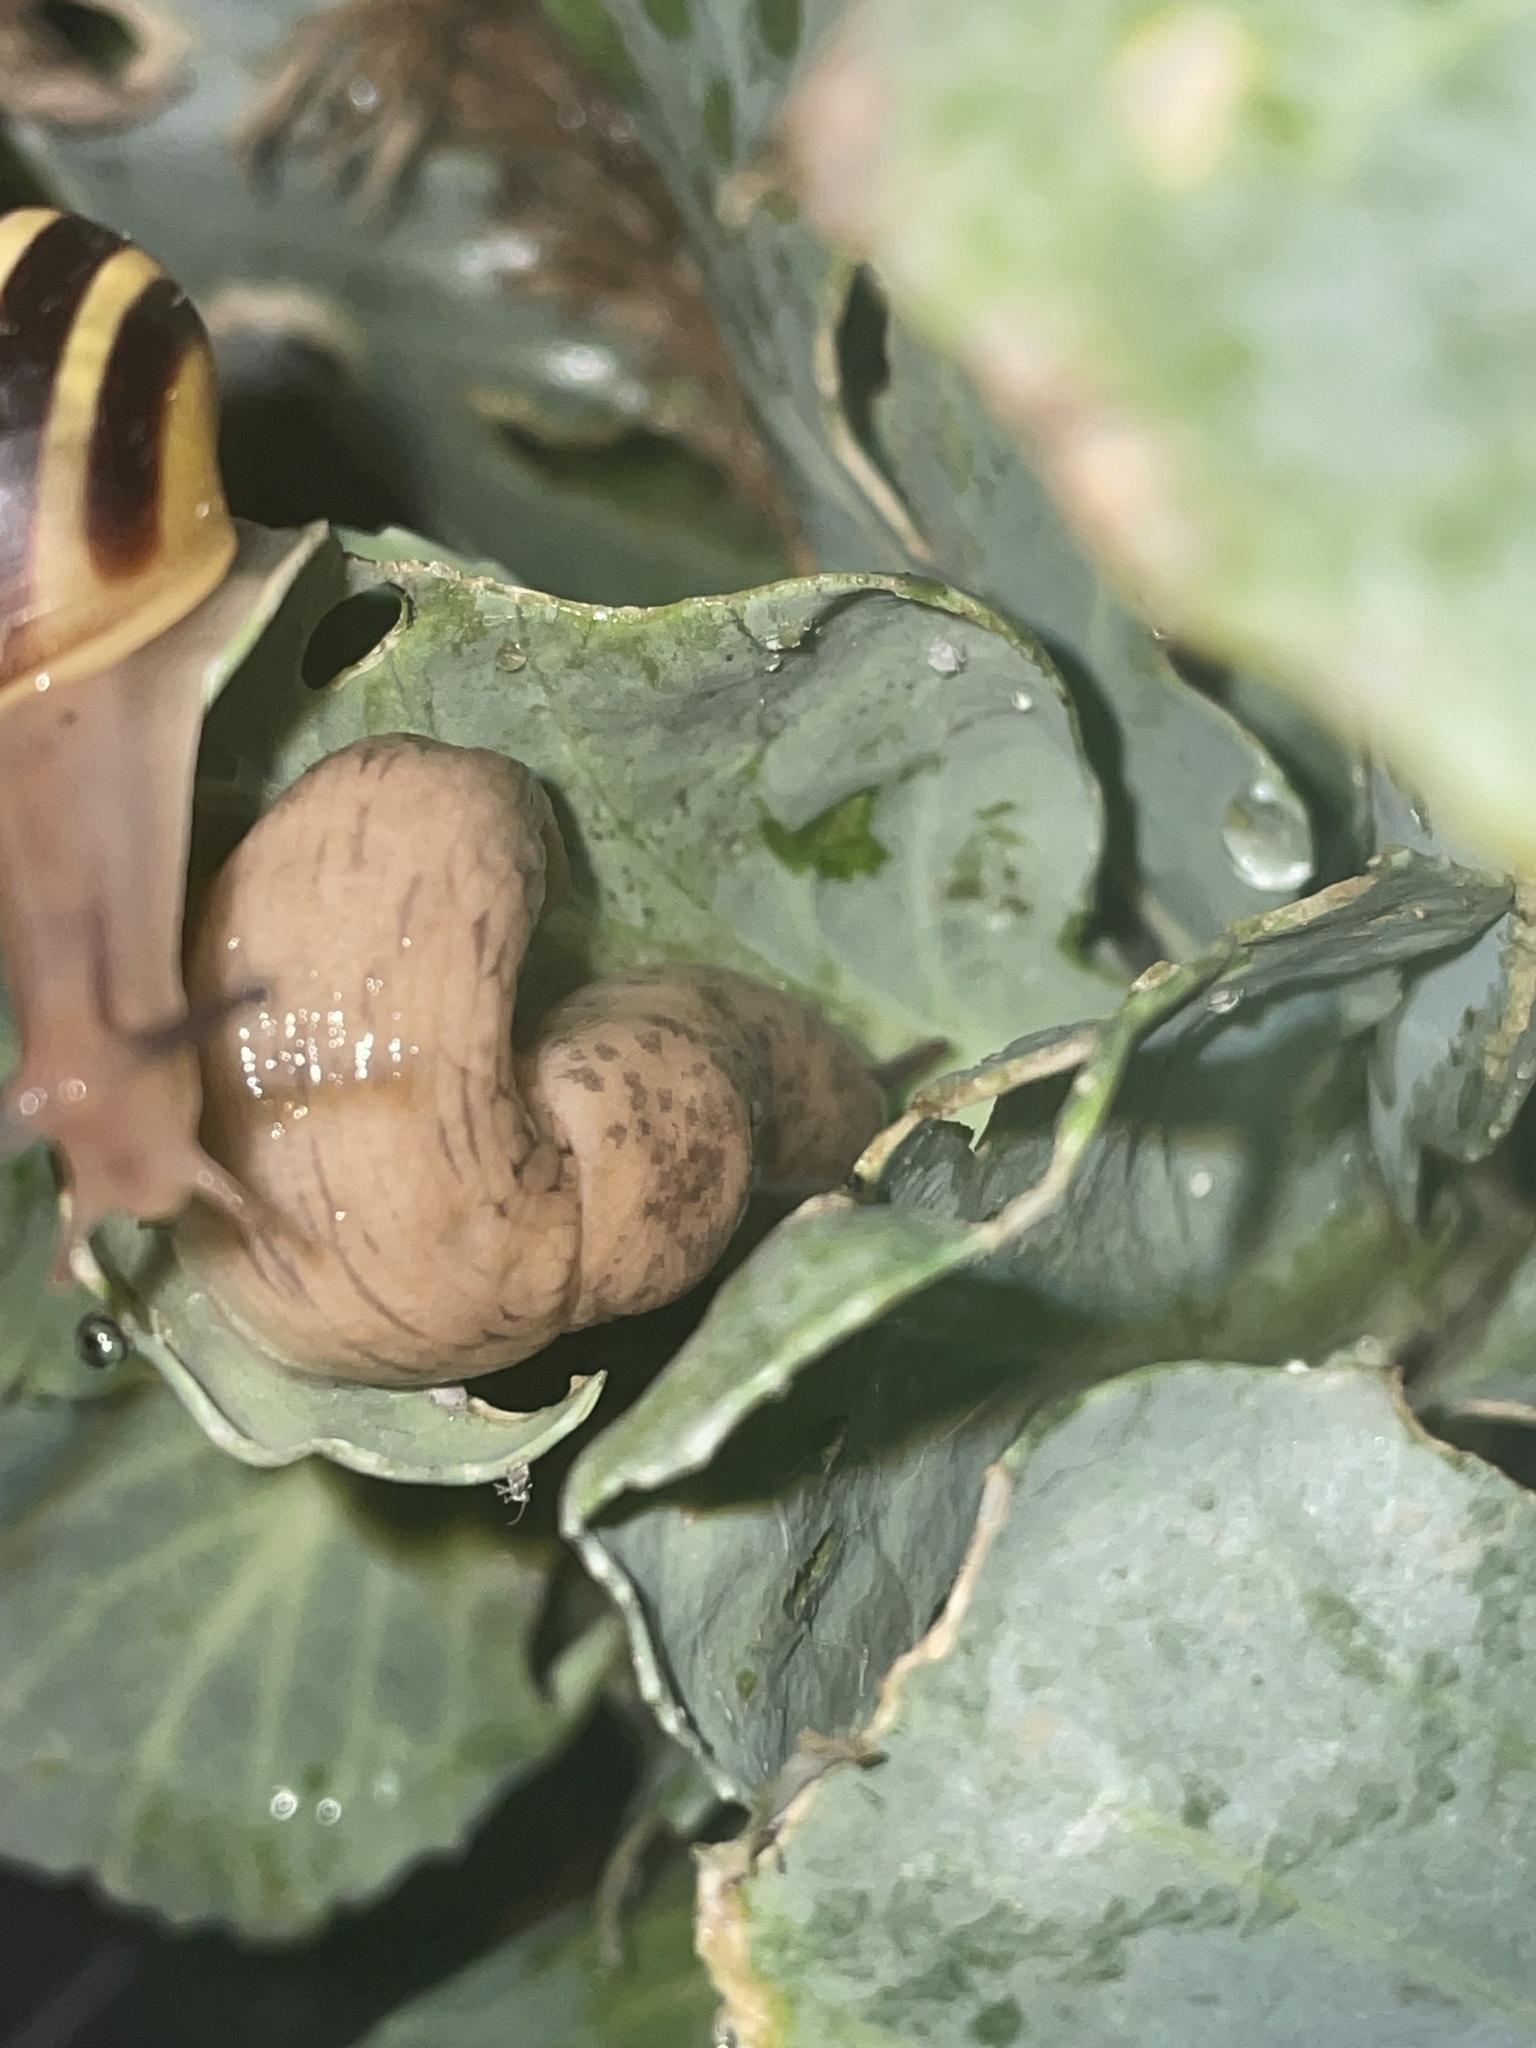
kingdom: Animalia
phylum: Mollusca
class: Gastropoda
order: Stylommatophora
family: Agriolimacidae
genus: Deroceras
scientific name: Deroceras reticulatum
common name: Gray field slug
